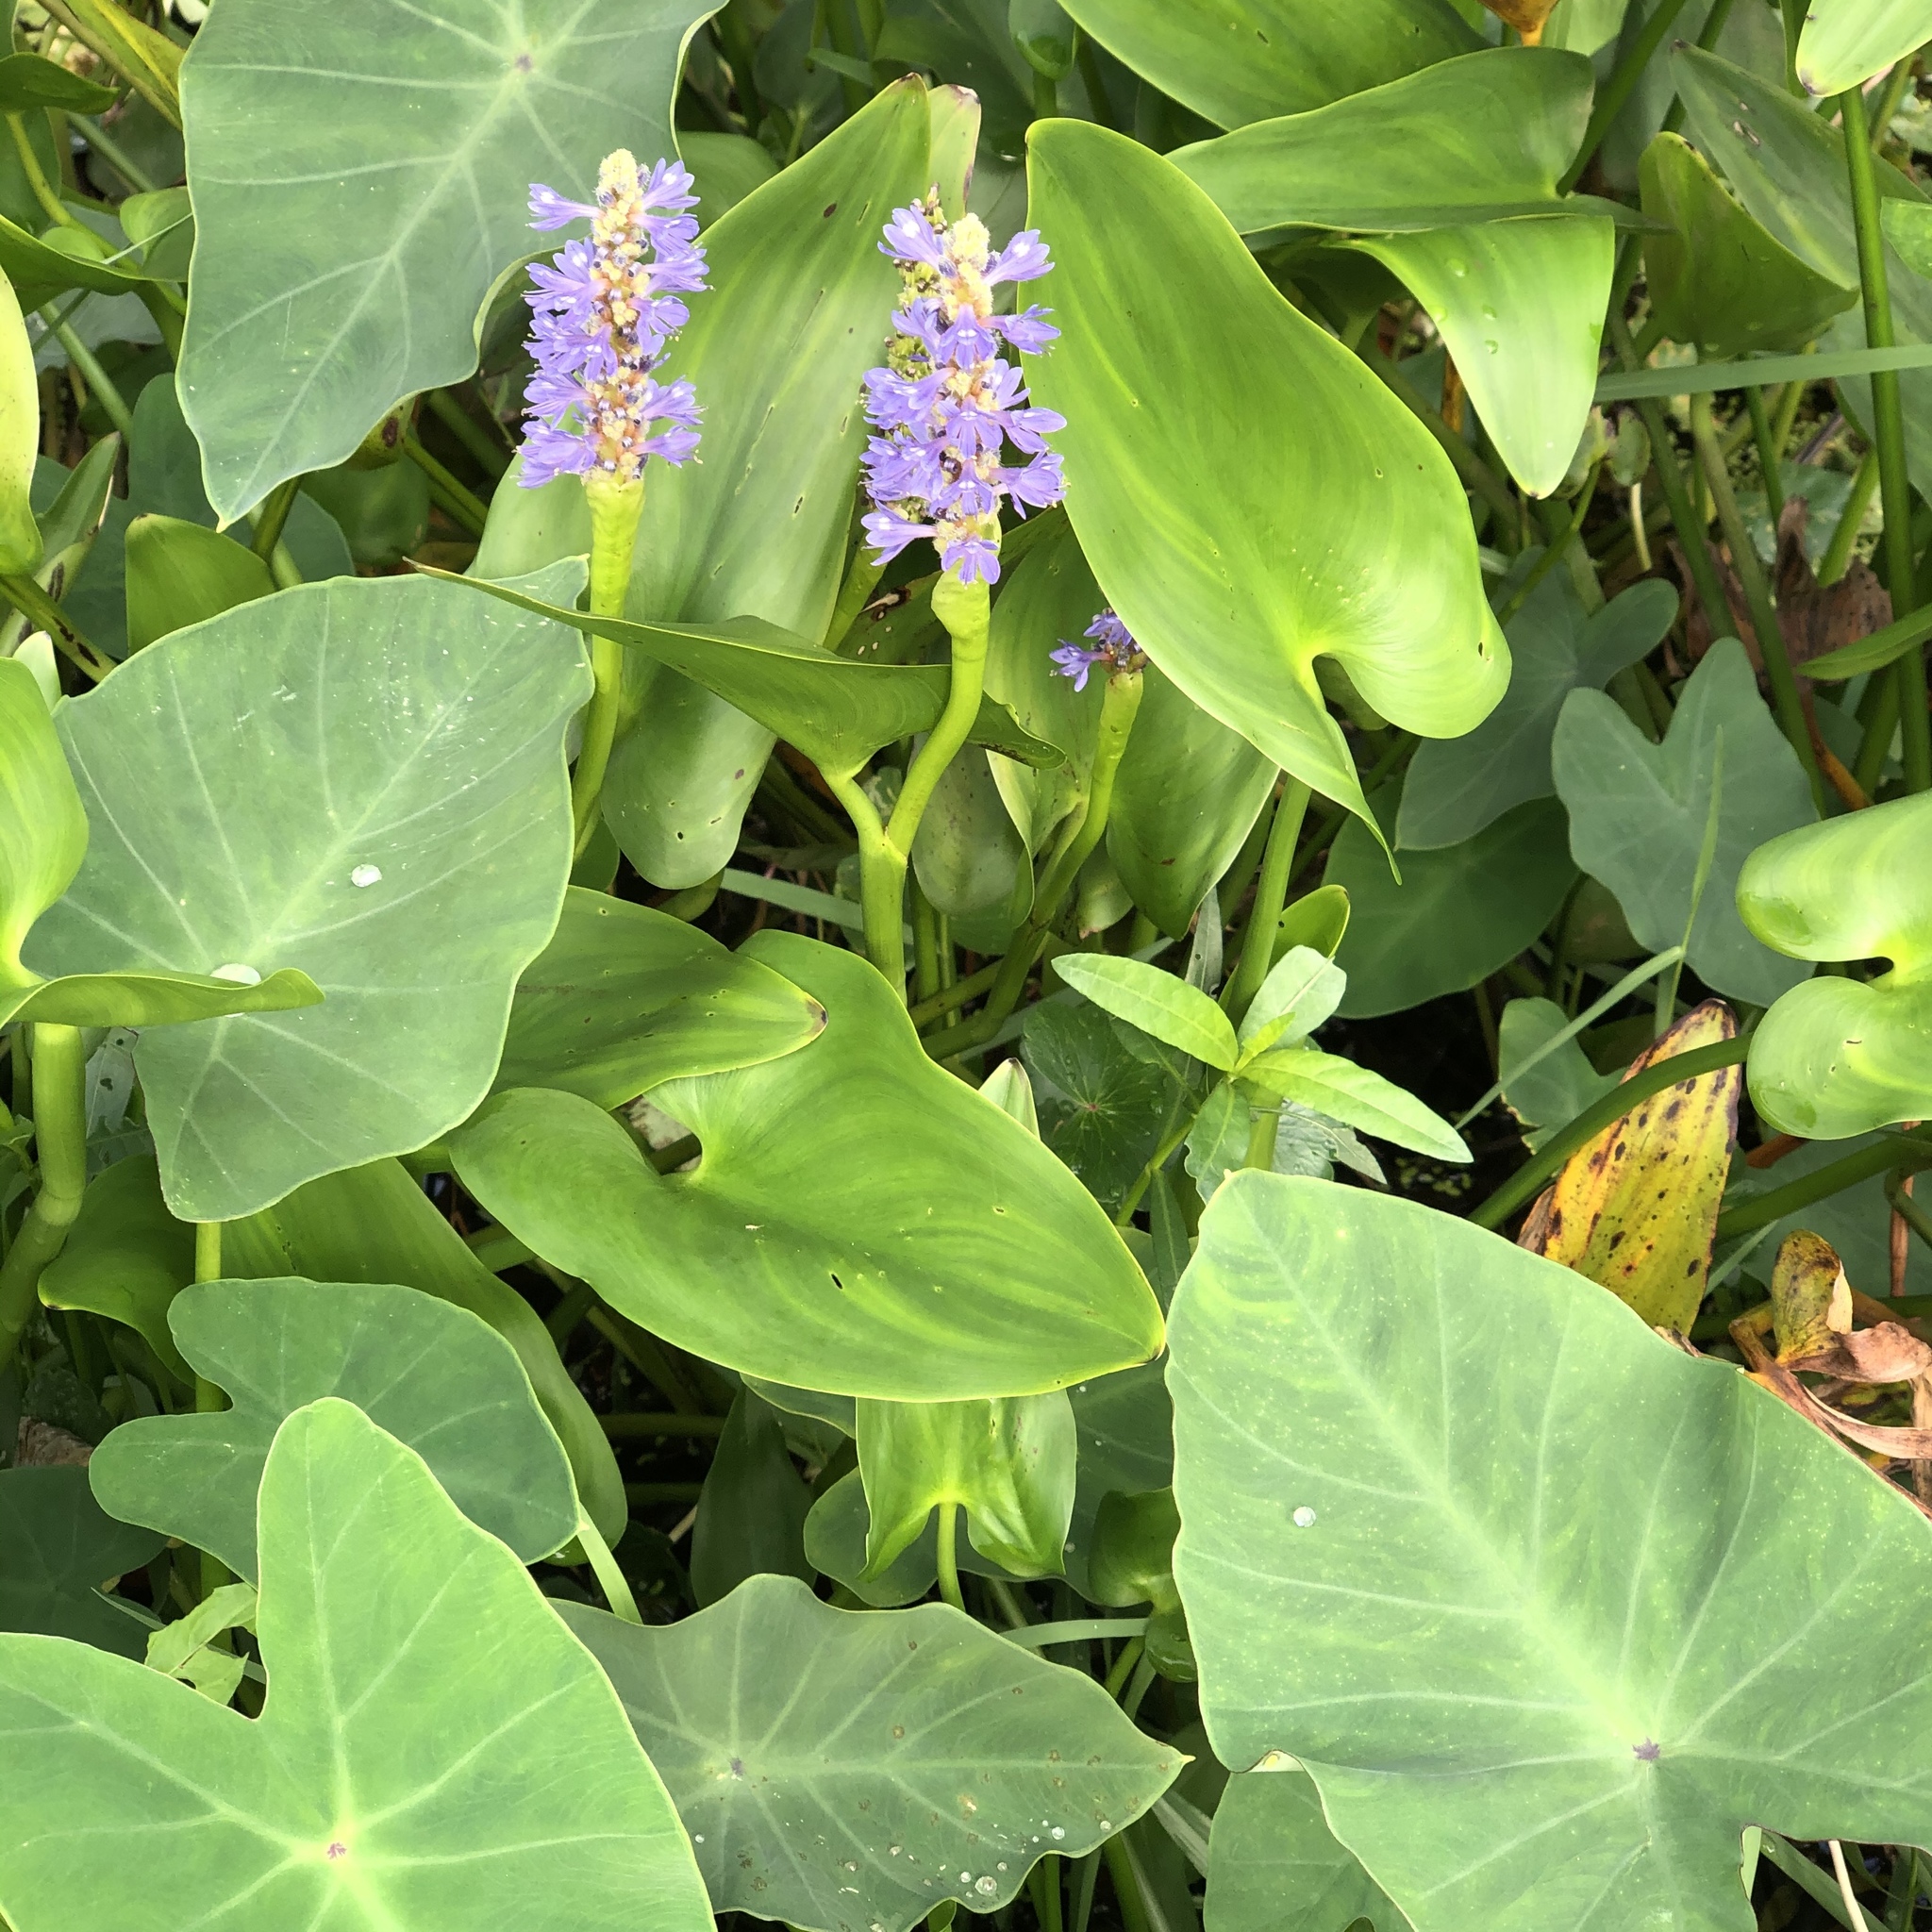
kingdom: Plantae
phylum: Tracheophyta
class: Liliopsida
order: Commelinales
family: Pontederiaceae
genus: Pontederia
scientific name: Pontederia cordata
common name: Pickerelweed
